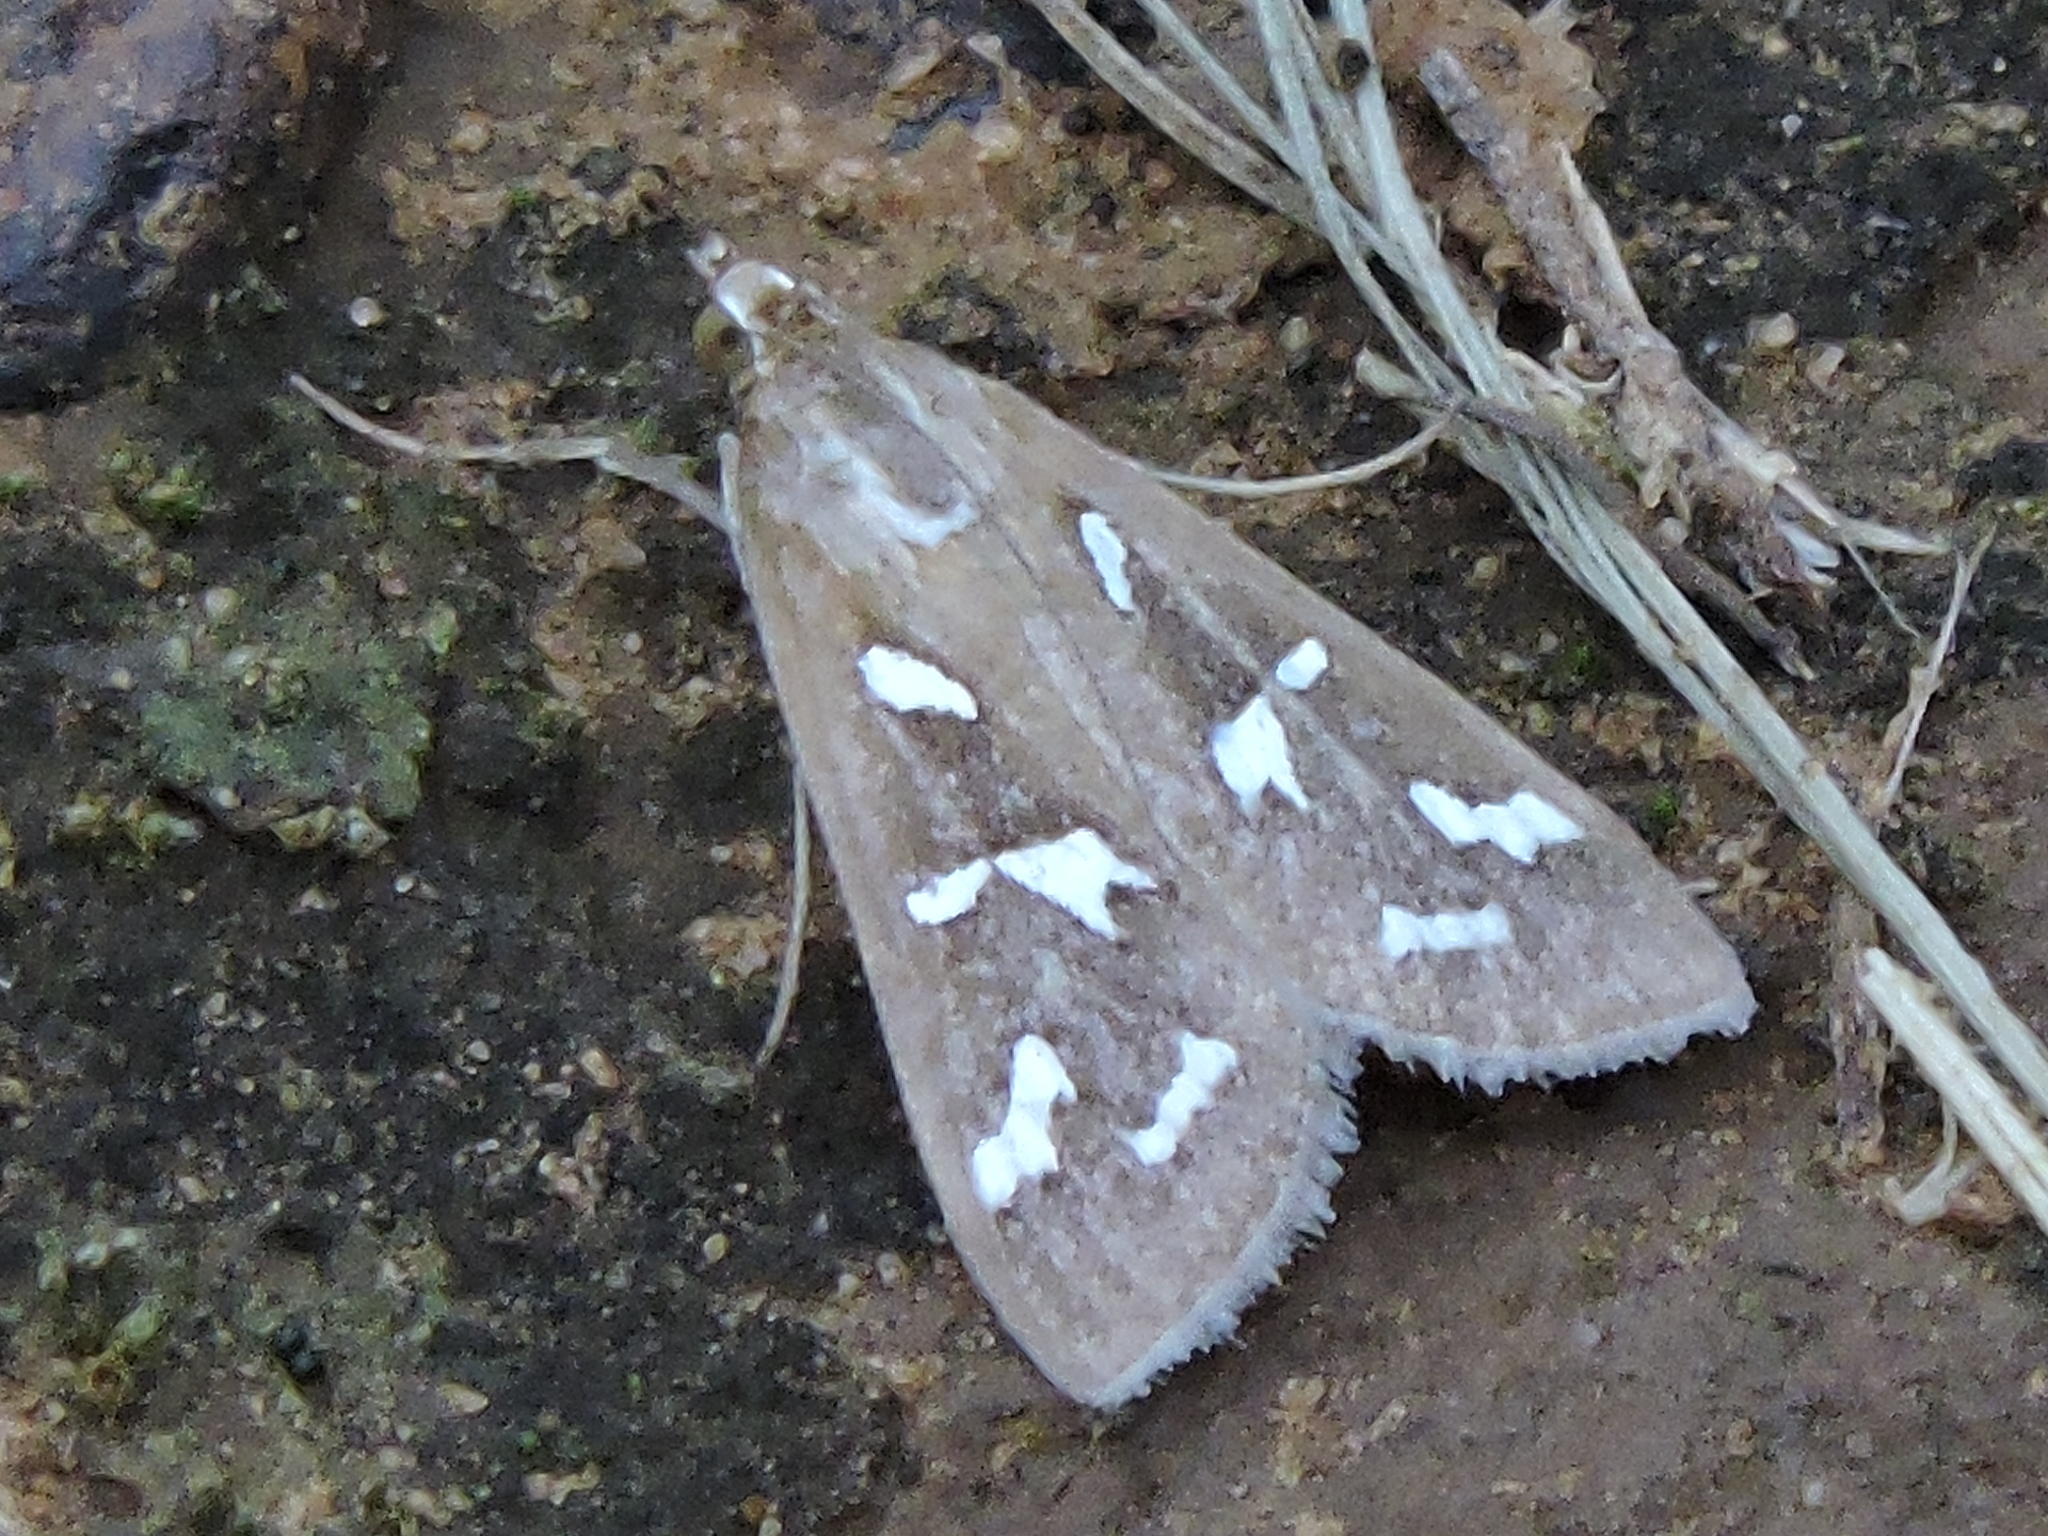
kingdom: Animalia
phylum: Arthropoda
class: Insecta
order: Lepidoptera
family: Crambidae
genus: Diastictis
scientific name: Diastictis fracturalis
